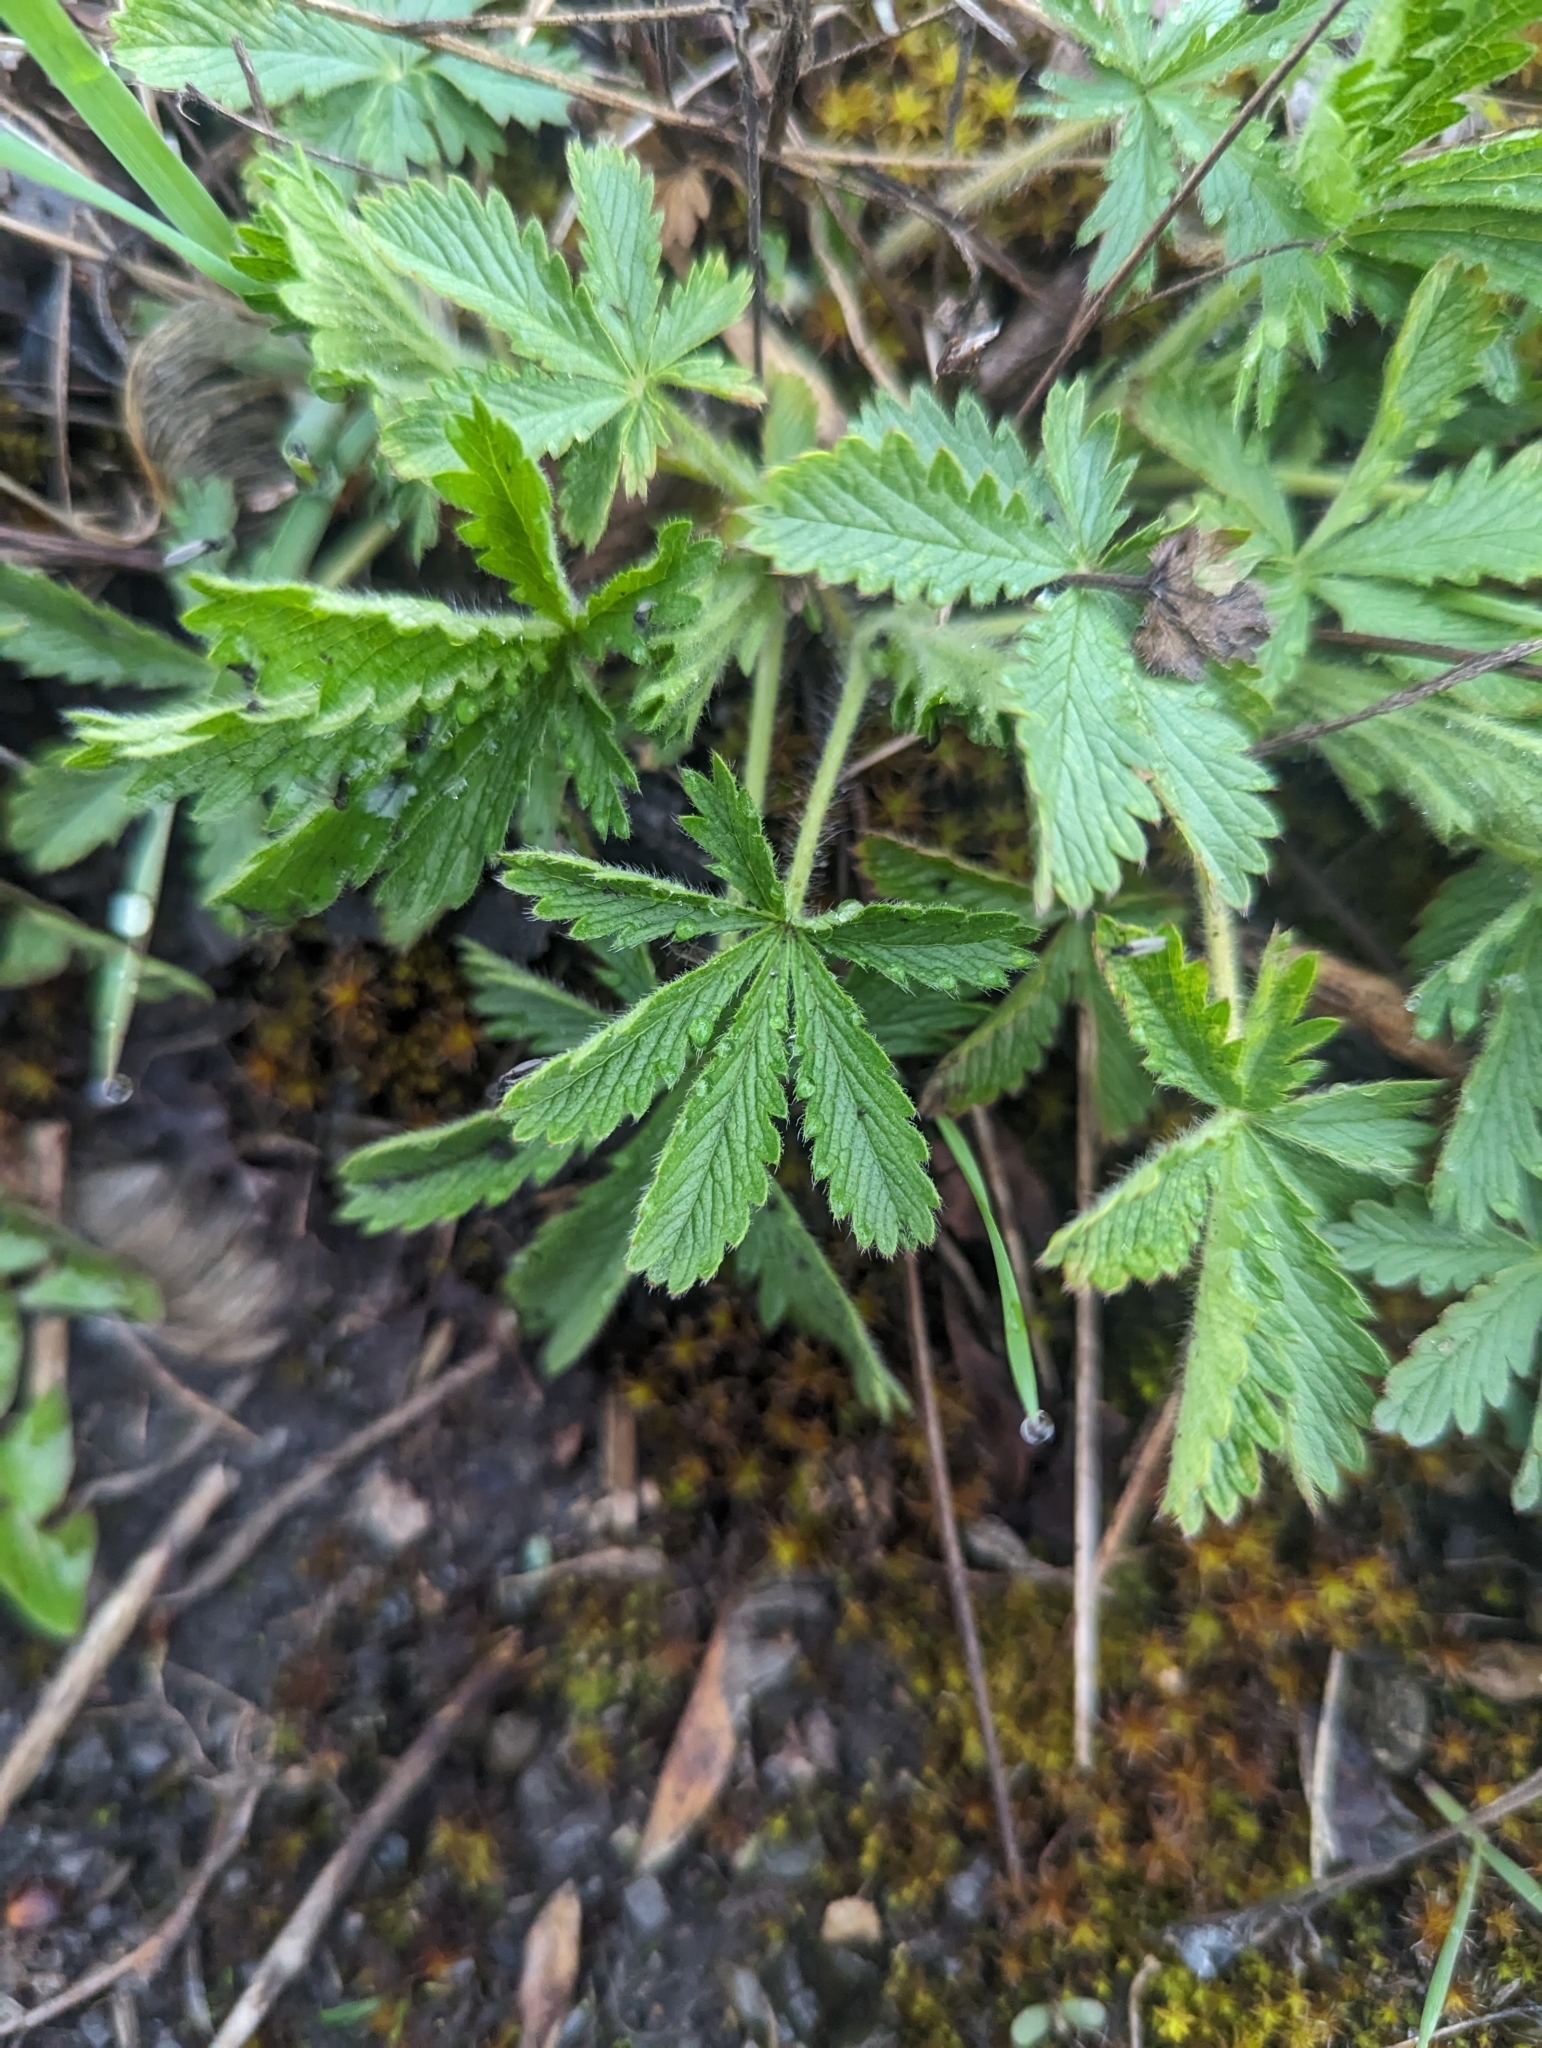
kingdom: Plantae
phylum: Tracheophyta
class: Magnoliopsida
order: Rosales
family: Rosaceae
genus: Potentilla
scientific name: Potentilla recta
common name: Sulphur cinquefoil
